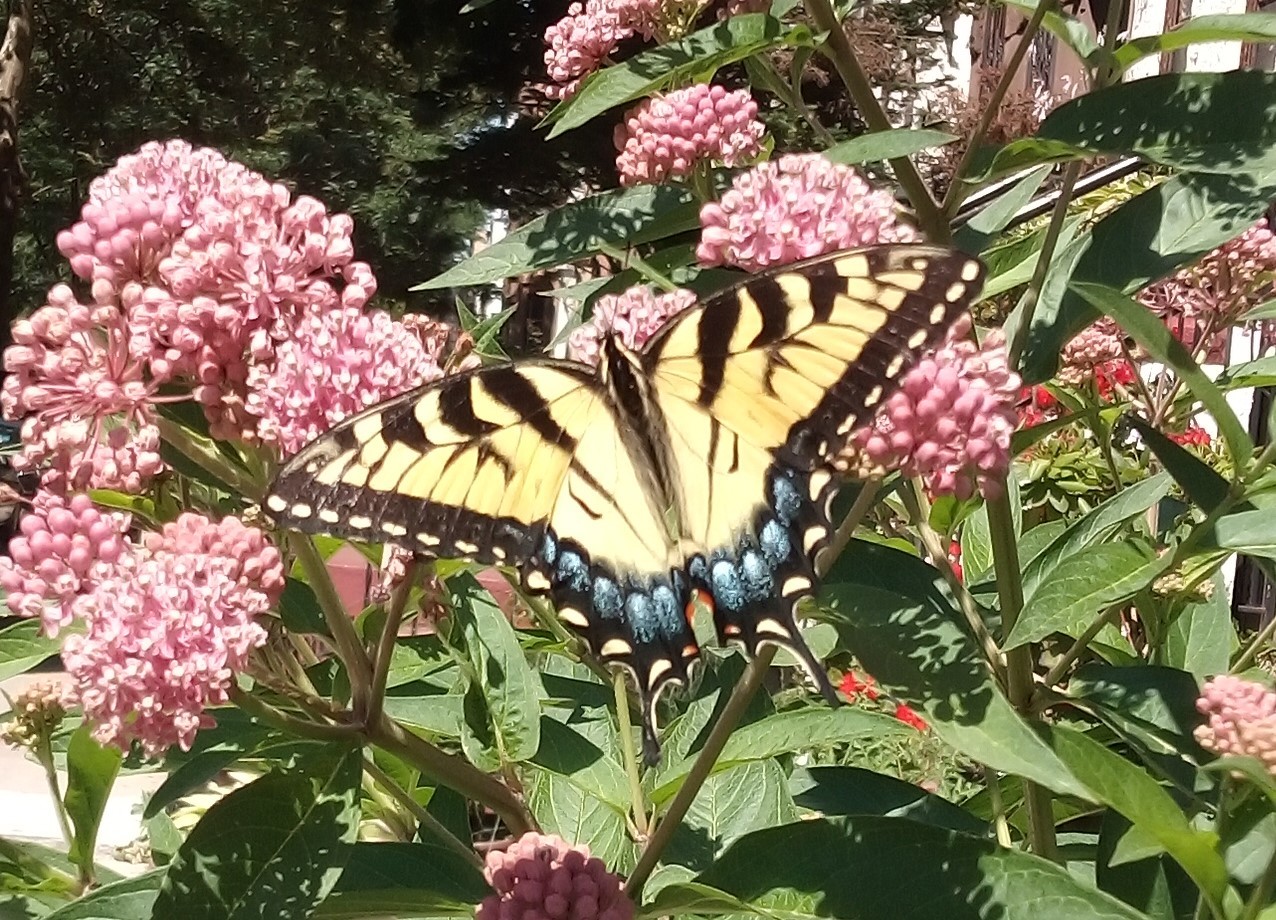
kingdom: Animalia
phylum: Arthropoda
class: Insecta
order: Lepidoptera
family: Papilionidae
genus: Papilio
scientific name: Papilio glaucus
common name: Tiger swallowtail
